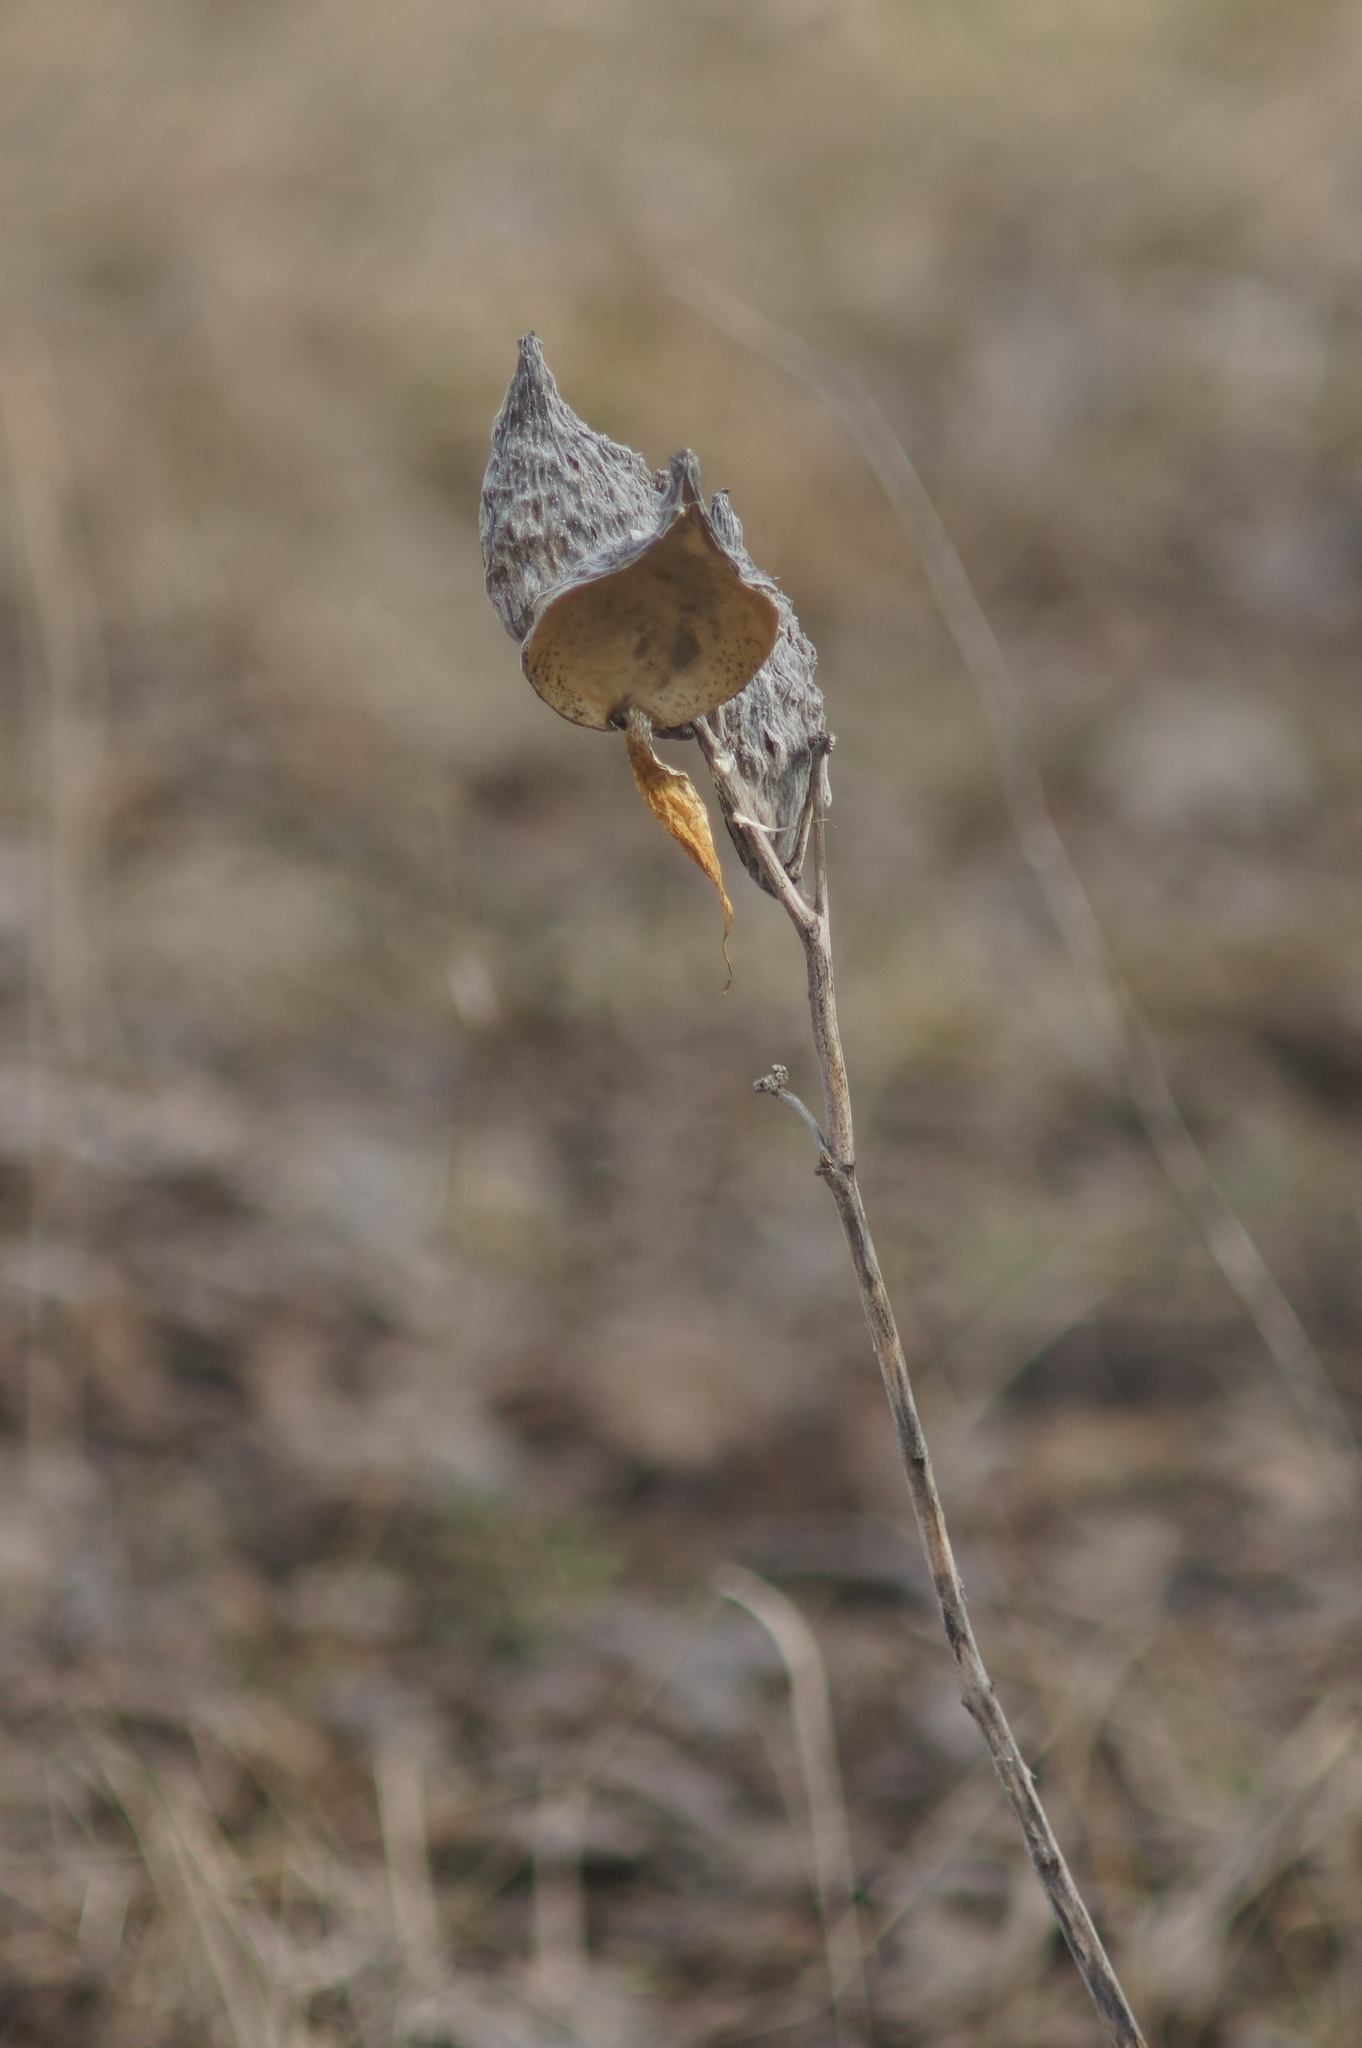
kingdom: Plantae
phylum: Tracheophyta
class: Magnoliopsida
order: Gentianales
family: Apocynaceae
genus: Asclepias
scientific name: Asclepias syriaca
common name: Common milkweed
